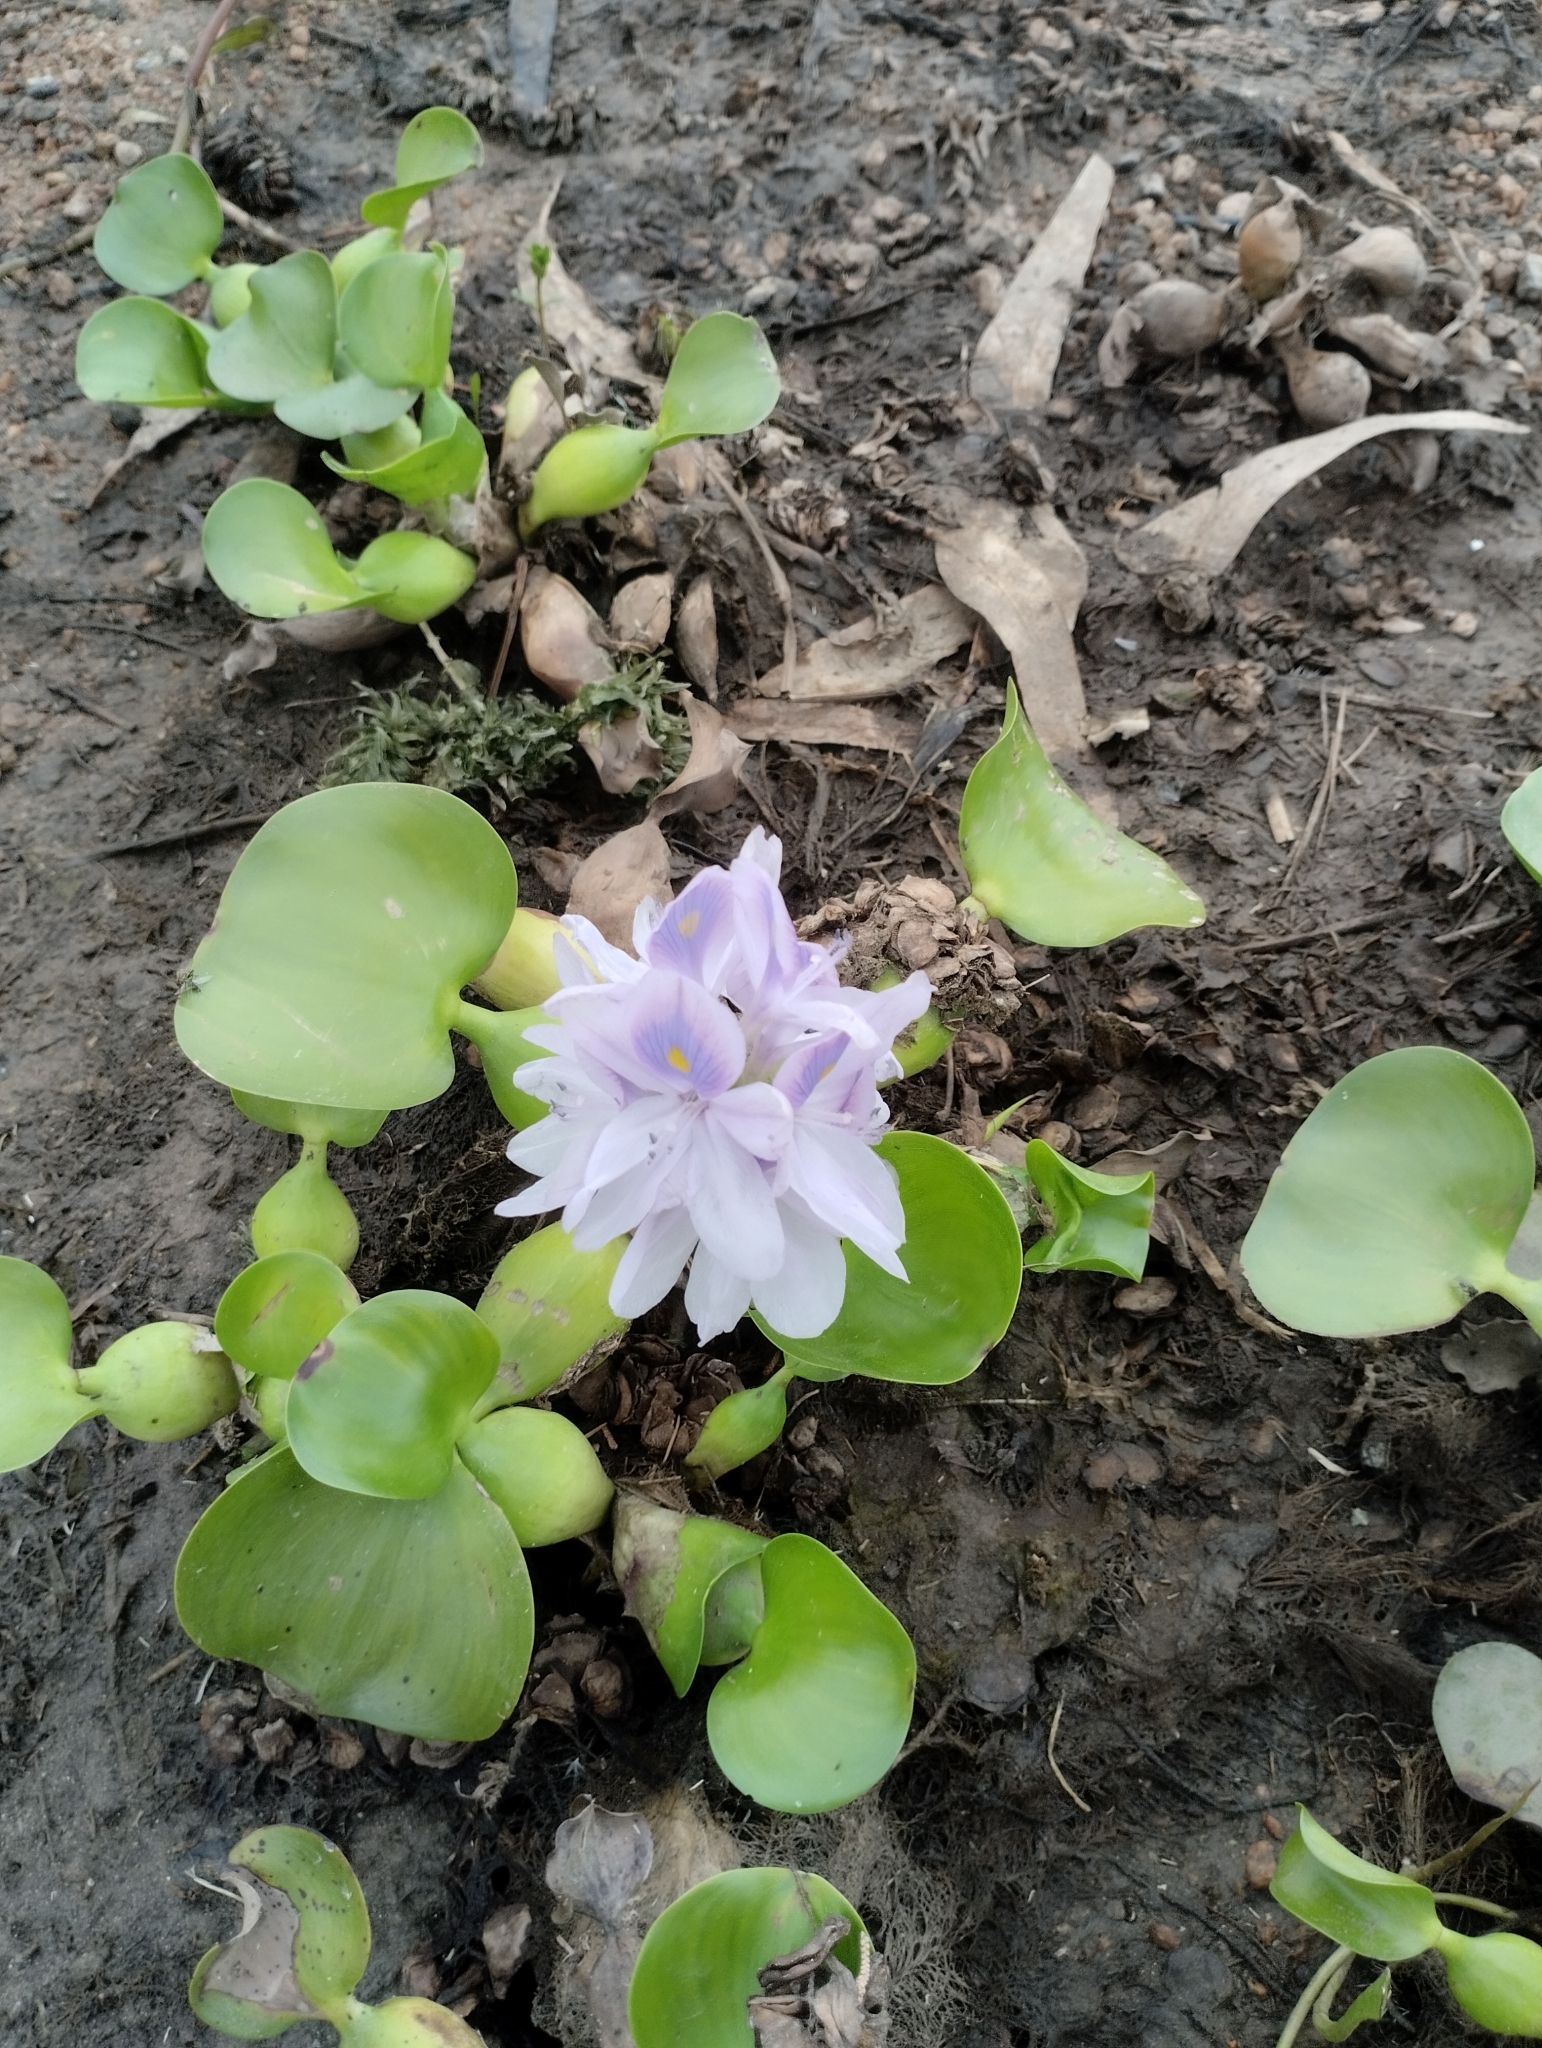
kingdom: Plantae
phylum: Tracheophyta
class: Liliopsida
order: Commelinales
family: Pontederiaceae
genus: Pontederia
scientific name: Pontederia crassipes
